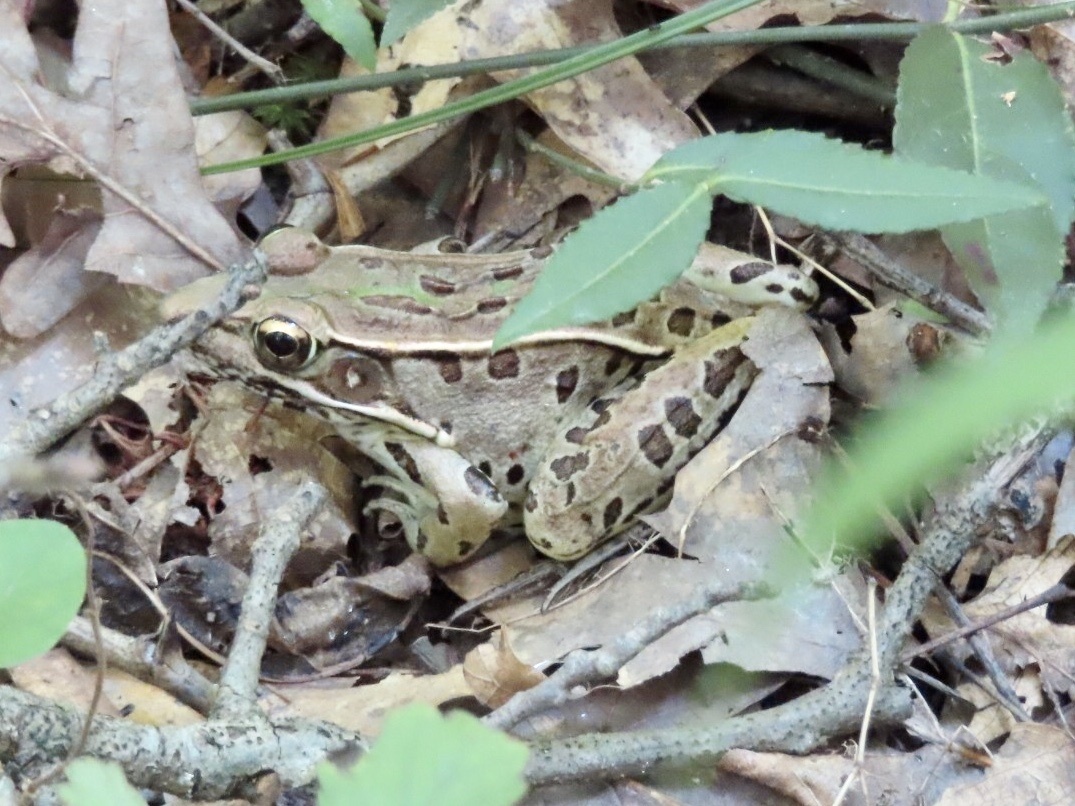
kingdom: Animalia
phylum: Chordata
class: Amphibia
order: Anura
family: Ranidae
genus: Lithobates
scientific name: Lithobates sphenocephalus
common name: Southern leopard frog
